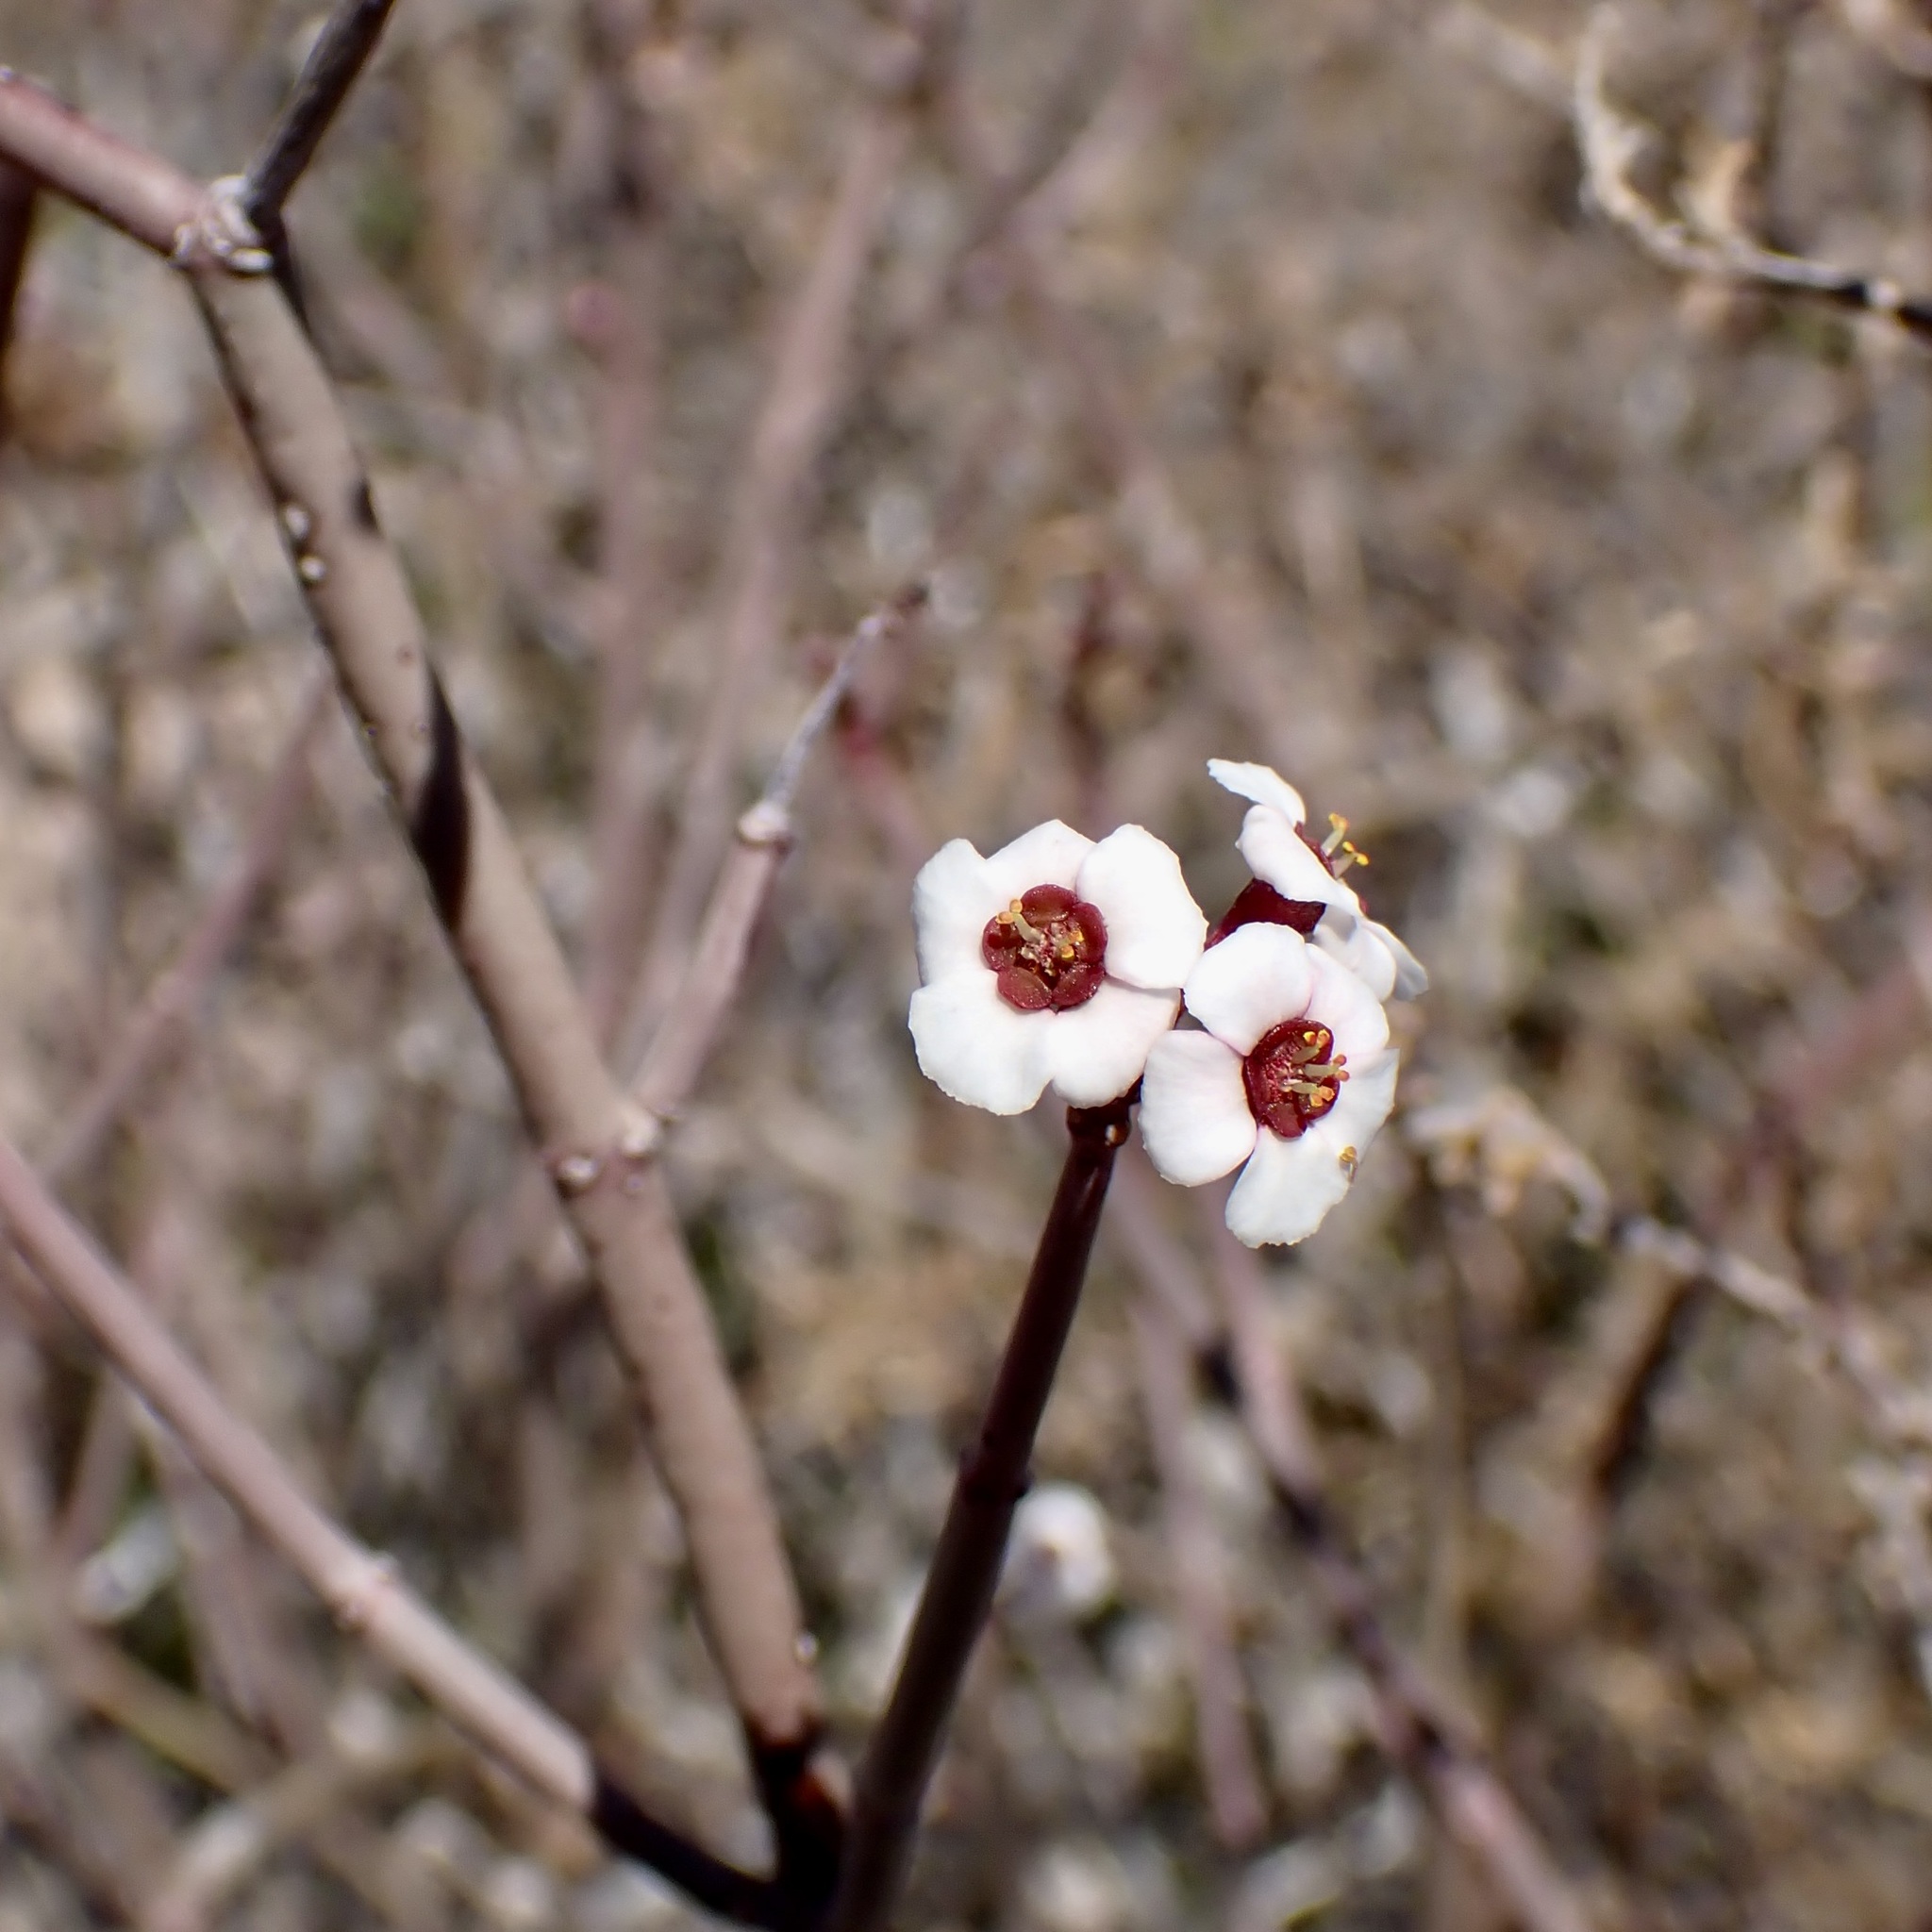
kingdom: Plantae
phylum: Tracheophyta
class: Magnoliopsida
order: Malpighiales
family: Euphorbiaceae
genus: Euphorbia
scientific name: Euphorbia xanti
